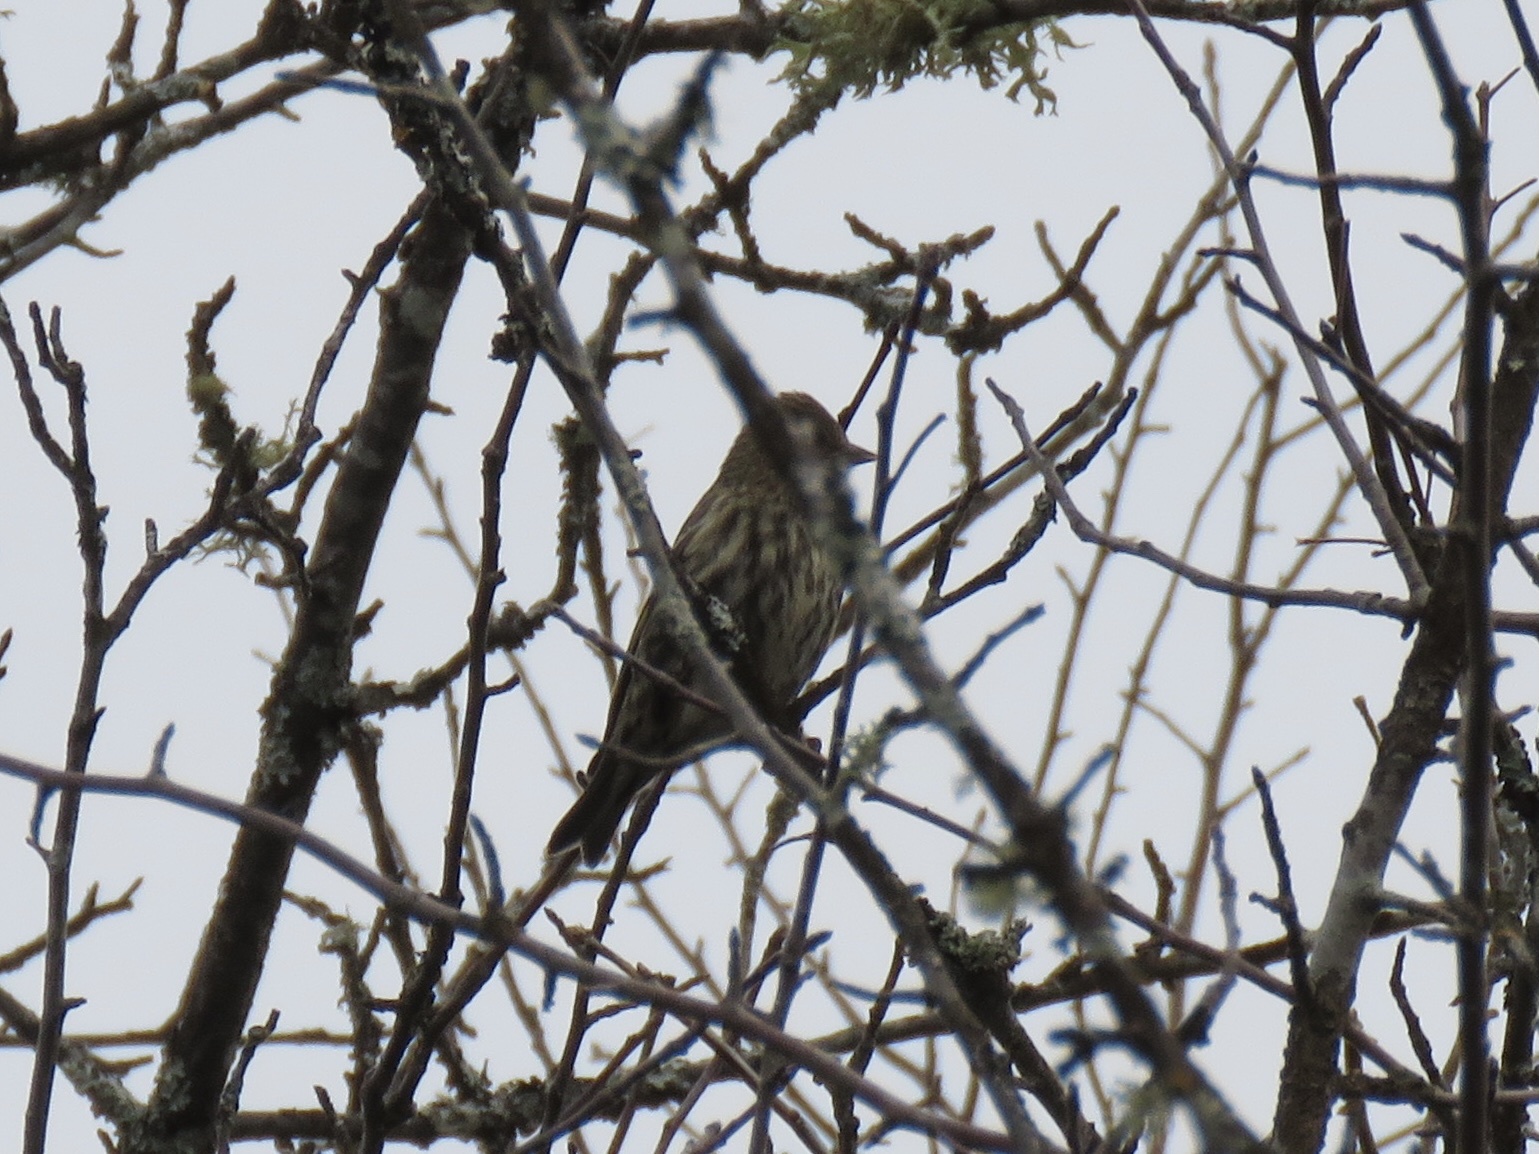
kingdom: Animalia
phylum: Chordata
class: Aves
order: Passeriformes
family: Fringillidae
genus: Spinus
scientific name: Spinus pinus
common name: Pine siskin
